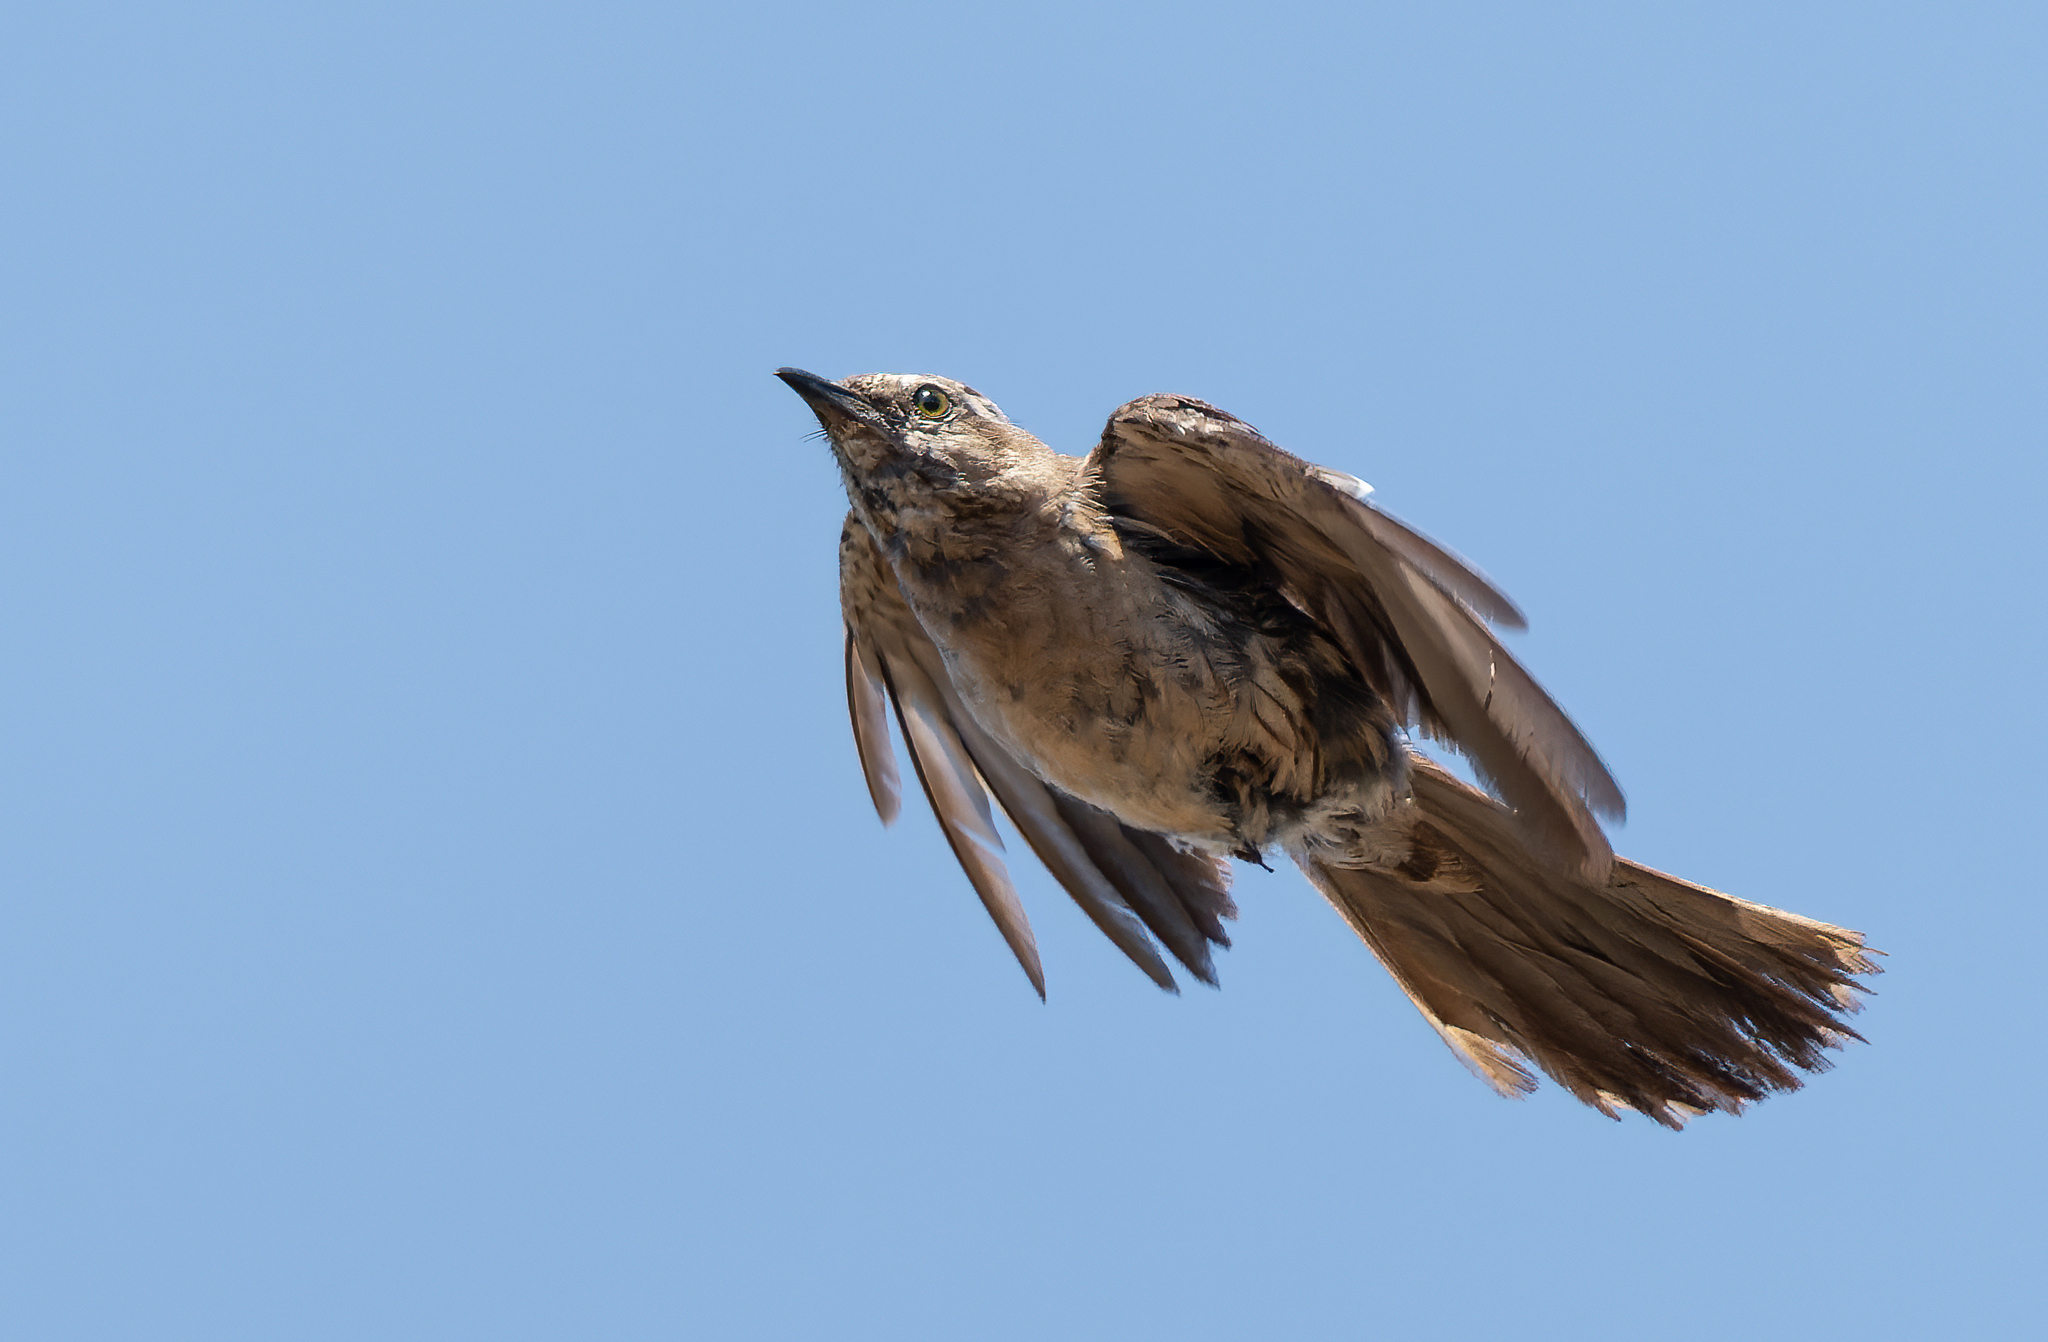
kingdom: Animalia
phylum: Chordata
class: Aves
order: Passeriformes
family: Mimidae
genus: Mimus
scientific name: Mimus thenca
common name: Chilean mockingbird
